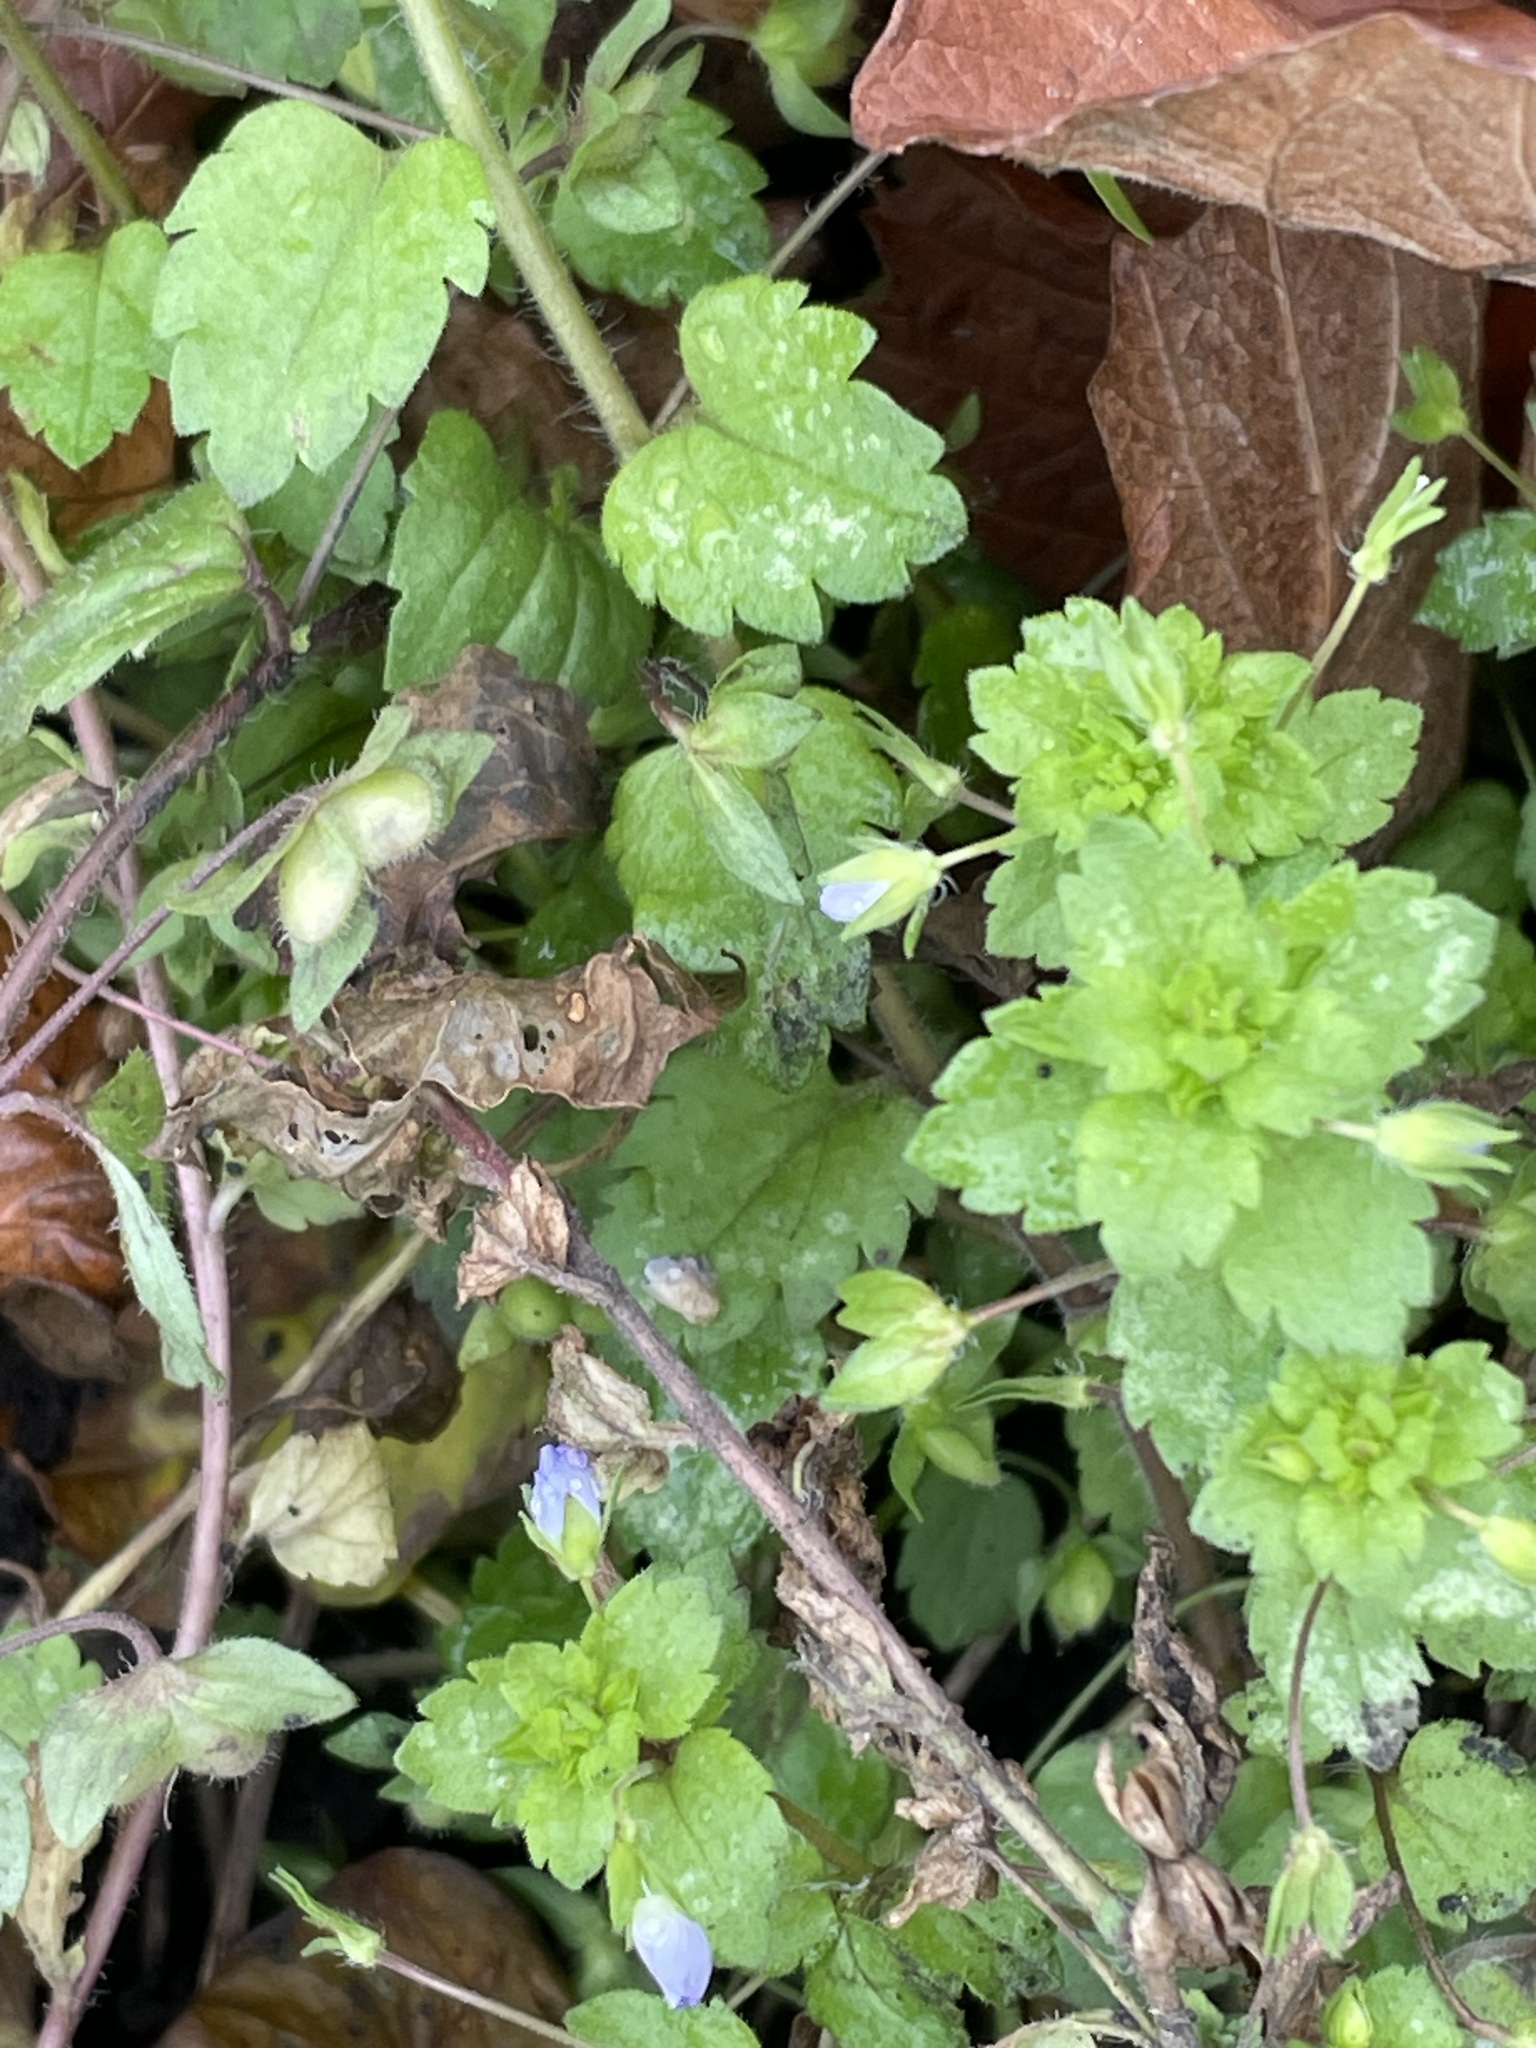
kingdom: Plantae
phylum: Tracheophyta
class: Magnoliopsida
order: Lamiales
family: Plantaginaceae
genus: Veronica
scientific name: Veronica persica
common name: Common field-speedwell
